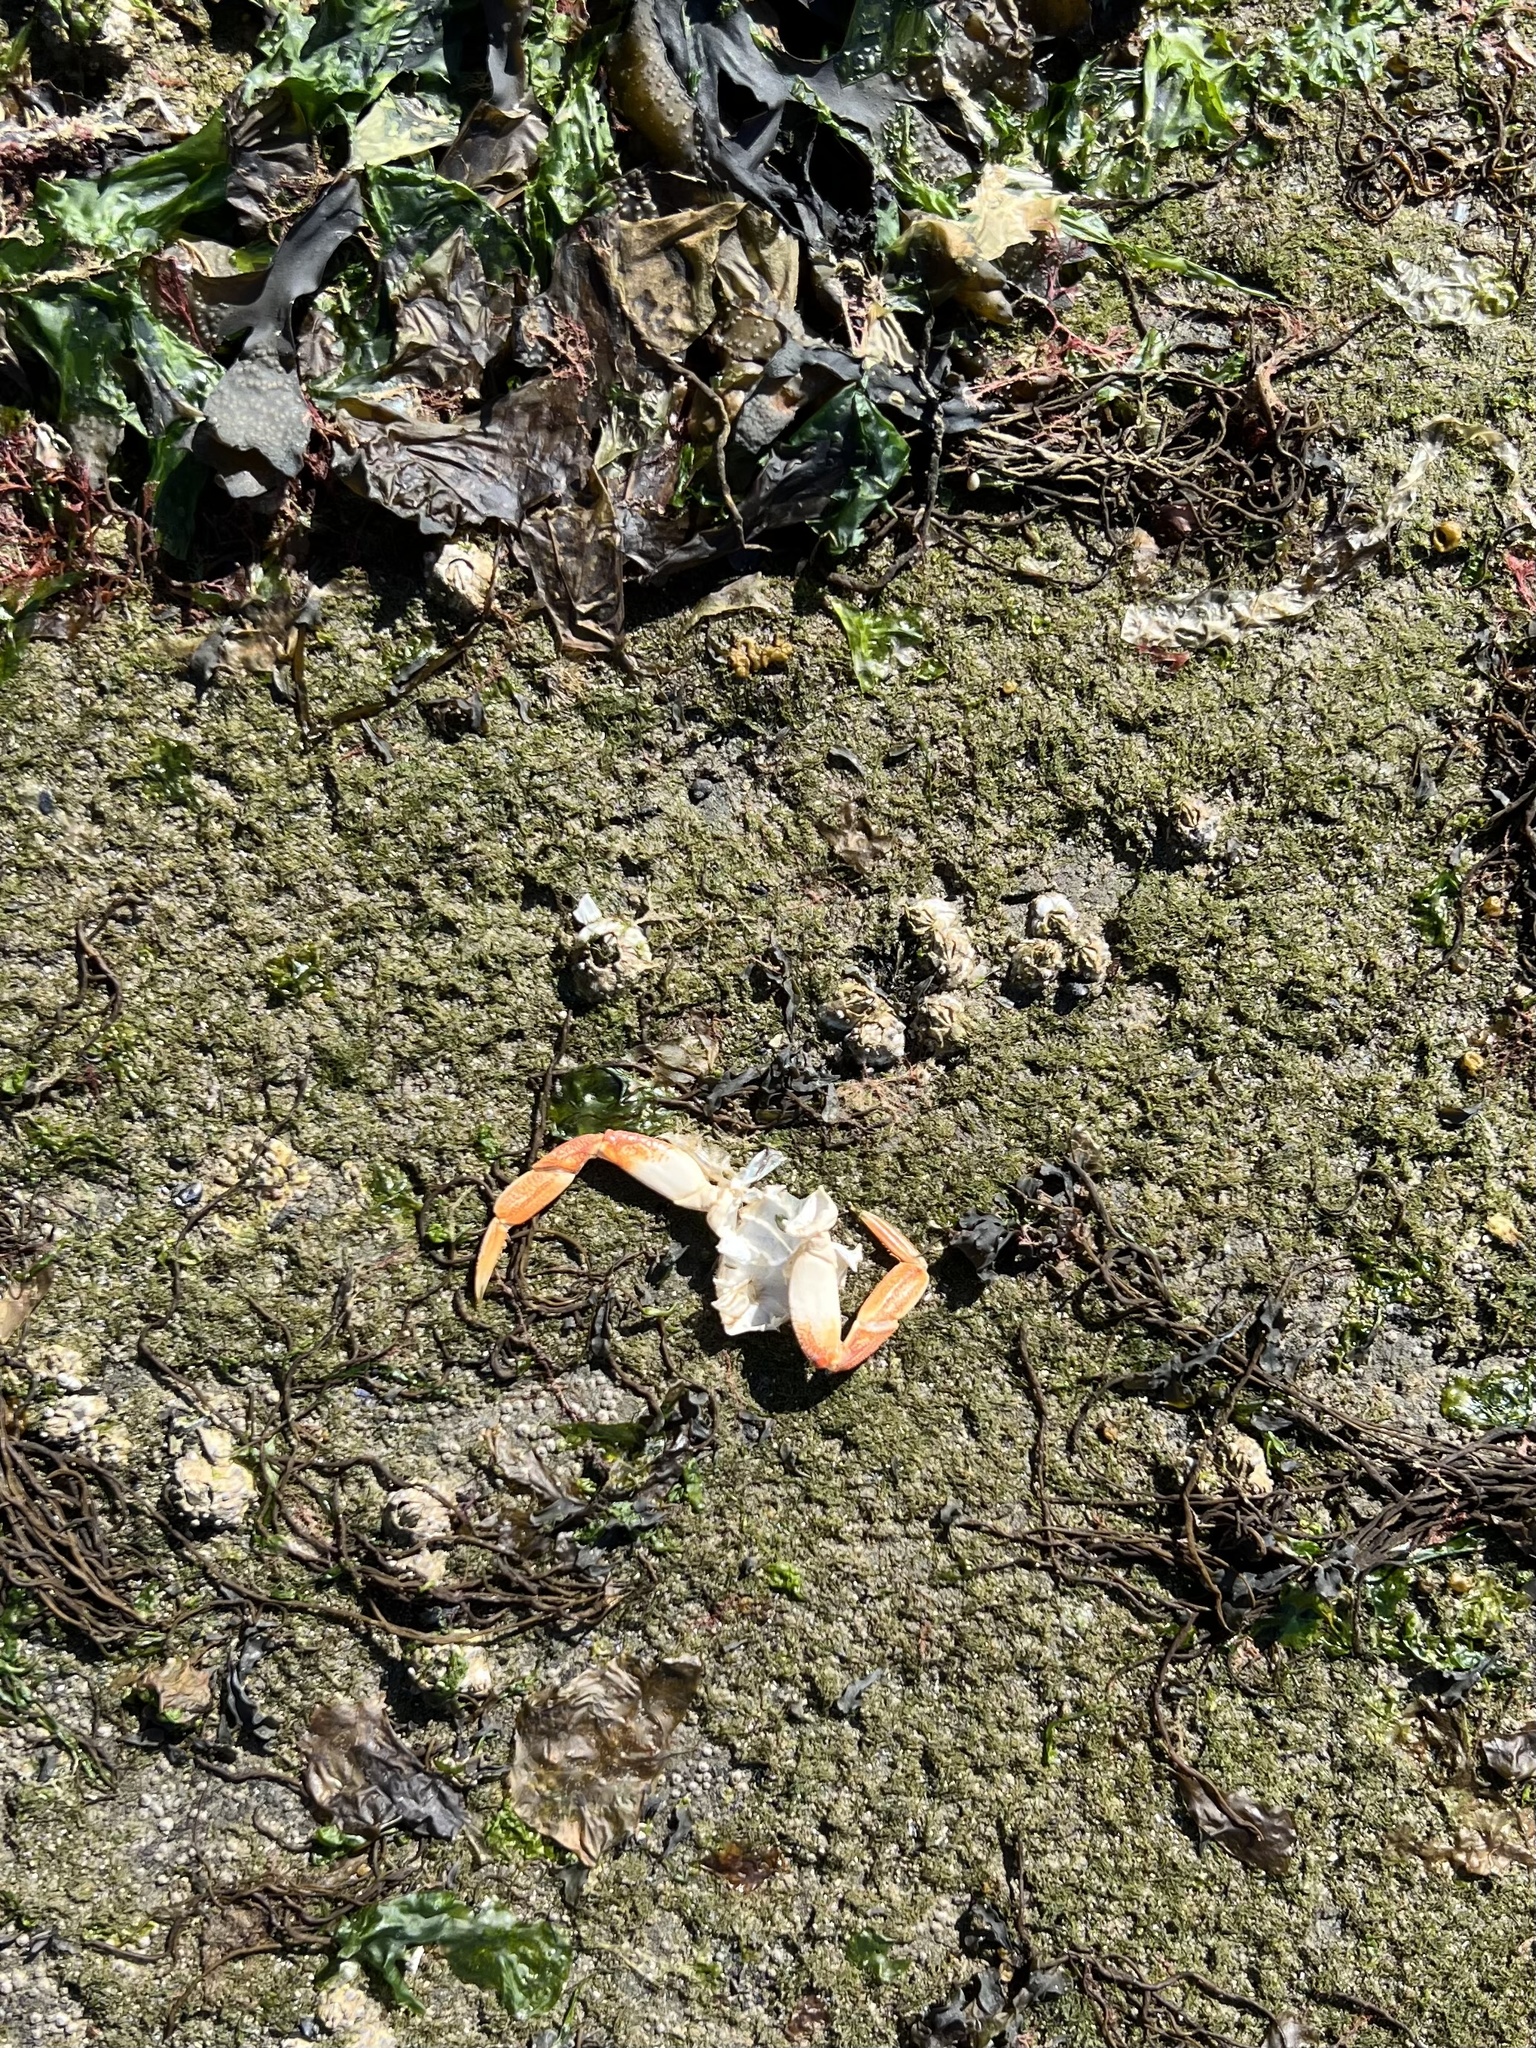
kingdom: Animalia
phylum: Arthropoda
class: Malacostraca
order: Decapoda
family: Cancridae
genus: Metacarcinus
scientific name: Metacarcinus magister
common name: Californian crab
